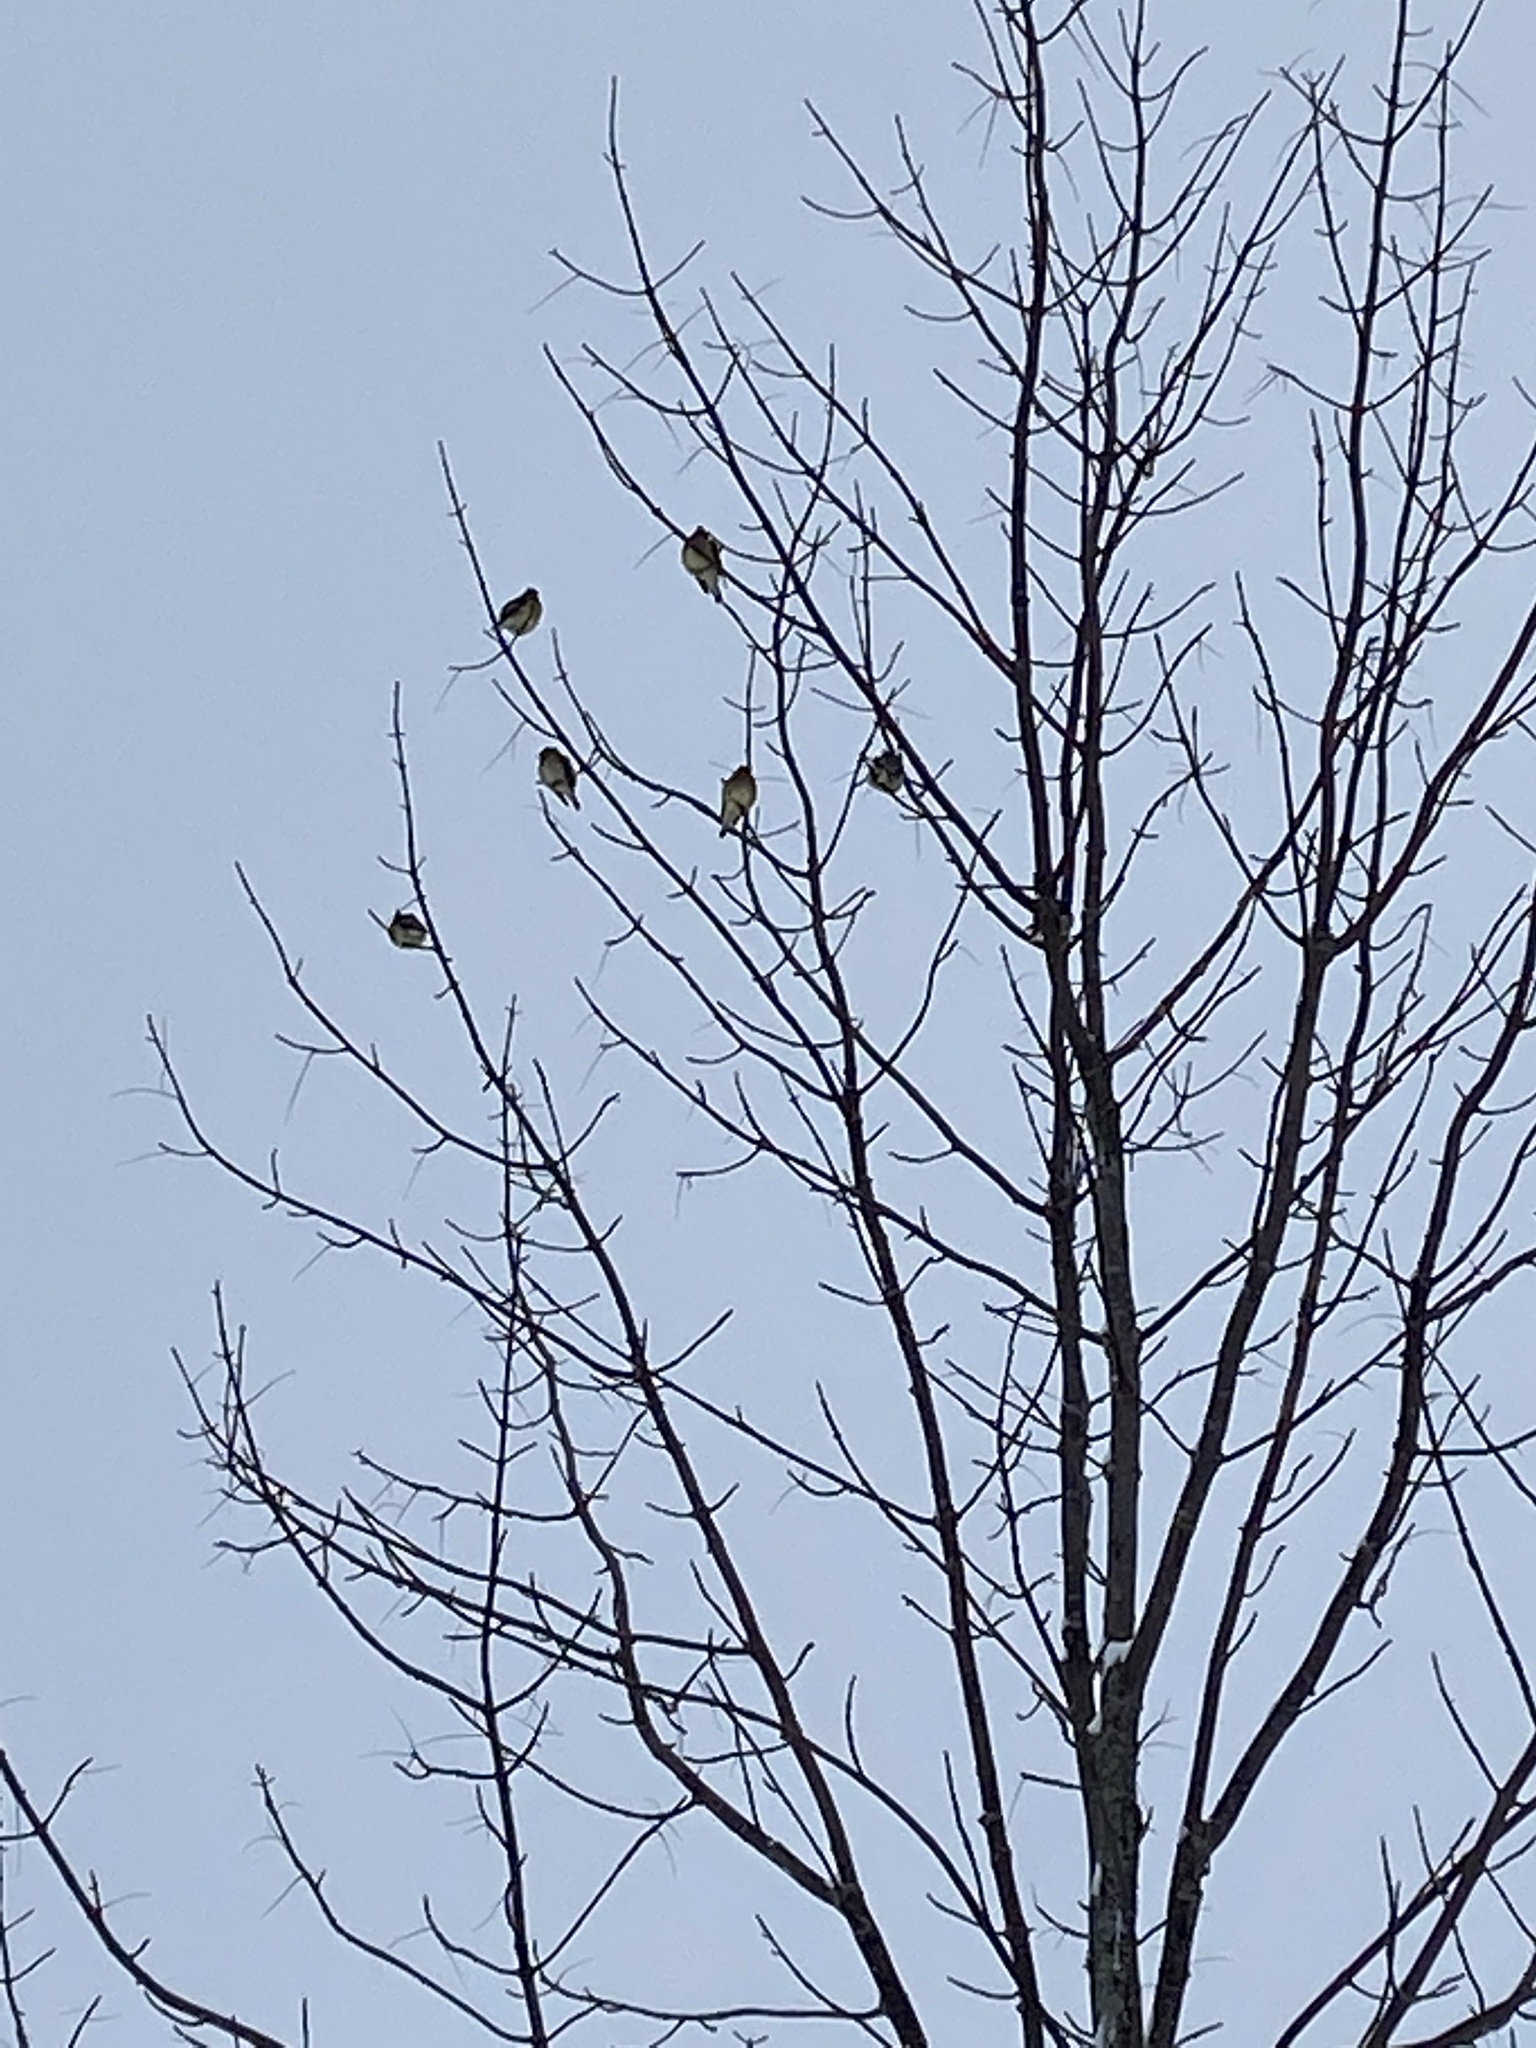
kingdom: Animalia
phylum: Chordata
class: Aves
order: Passeriformes
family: Bombycillidae
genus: Bombycilla
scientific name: Bombycilla cedrorum
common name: Cedar waxwing
